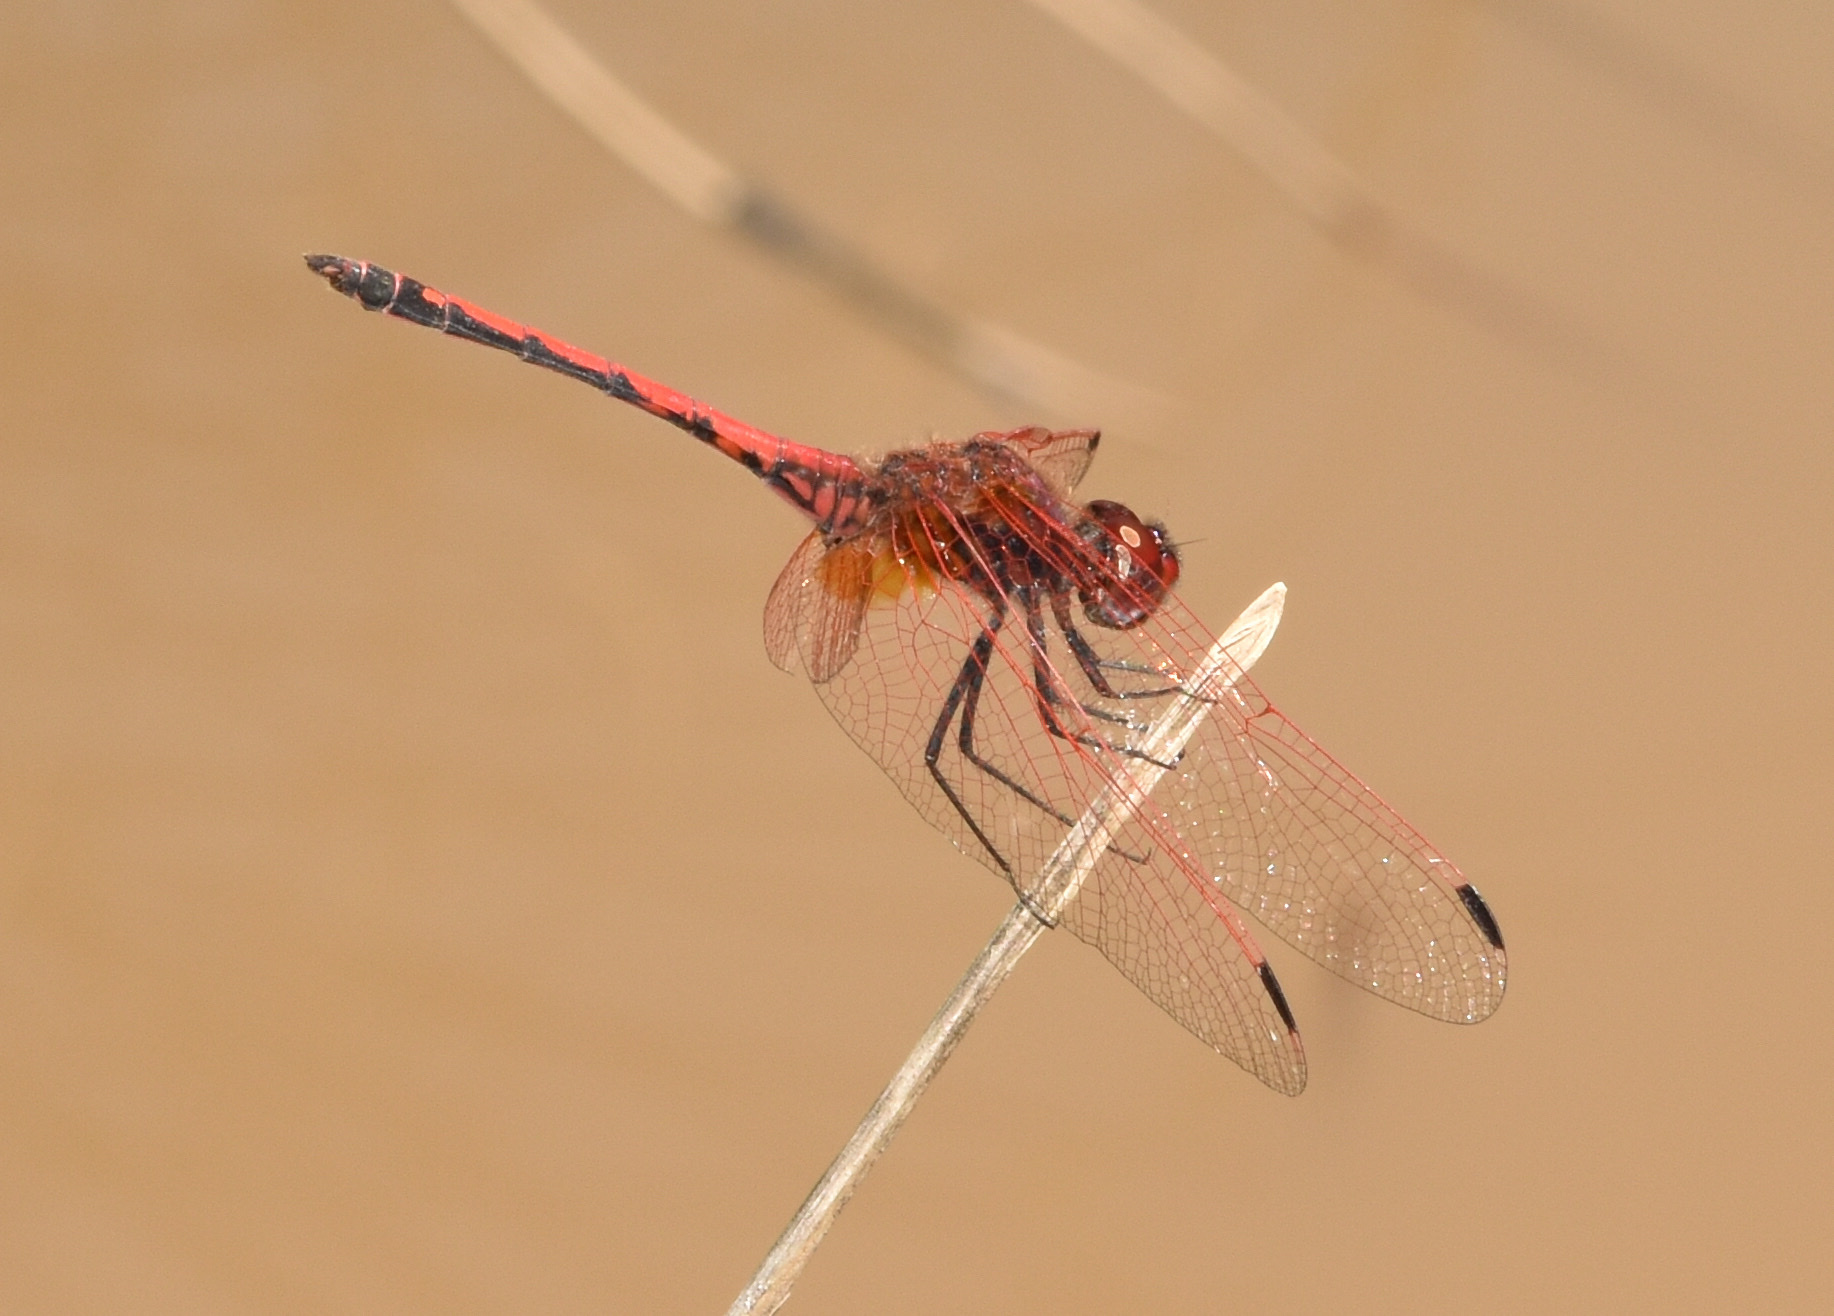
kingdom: Animalia
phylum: Arthropoda
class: Insecta
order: Odonata
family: Libellulidae
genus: Trithemis
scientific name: Trithemis arteriosa
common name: Red-veined dropwing
